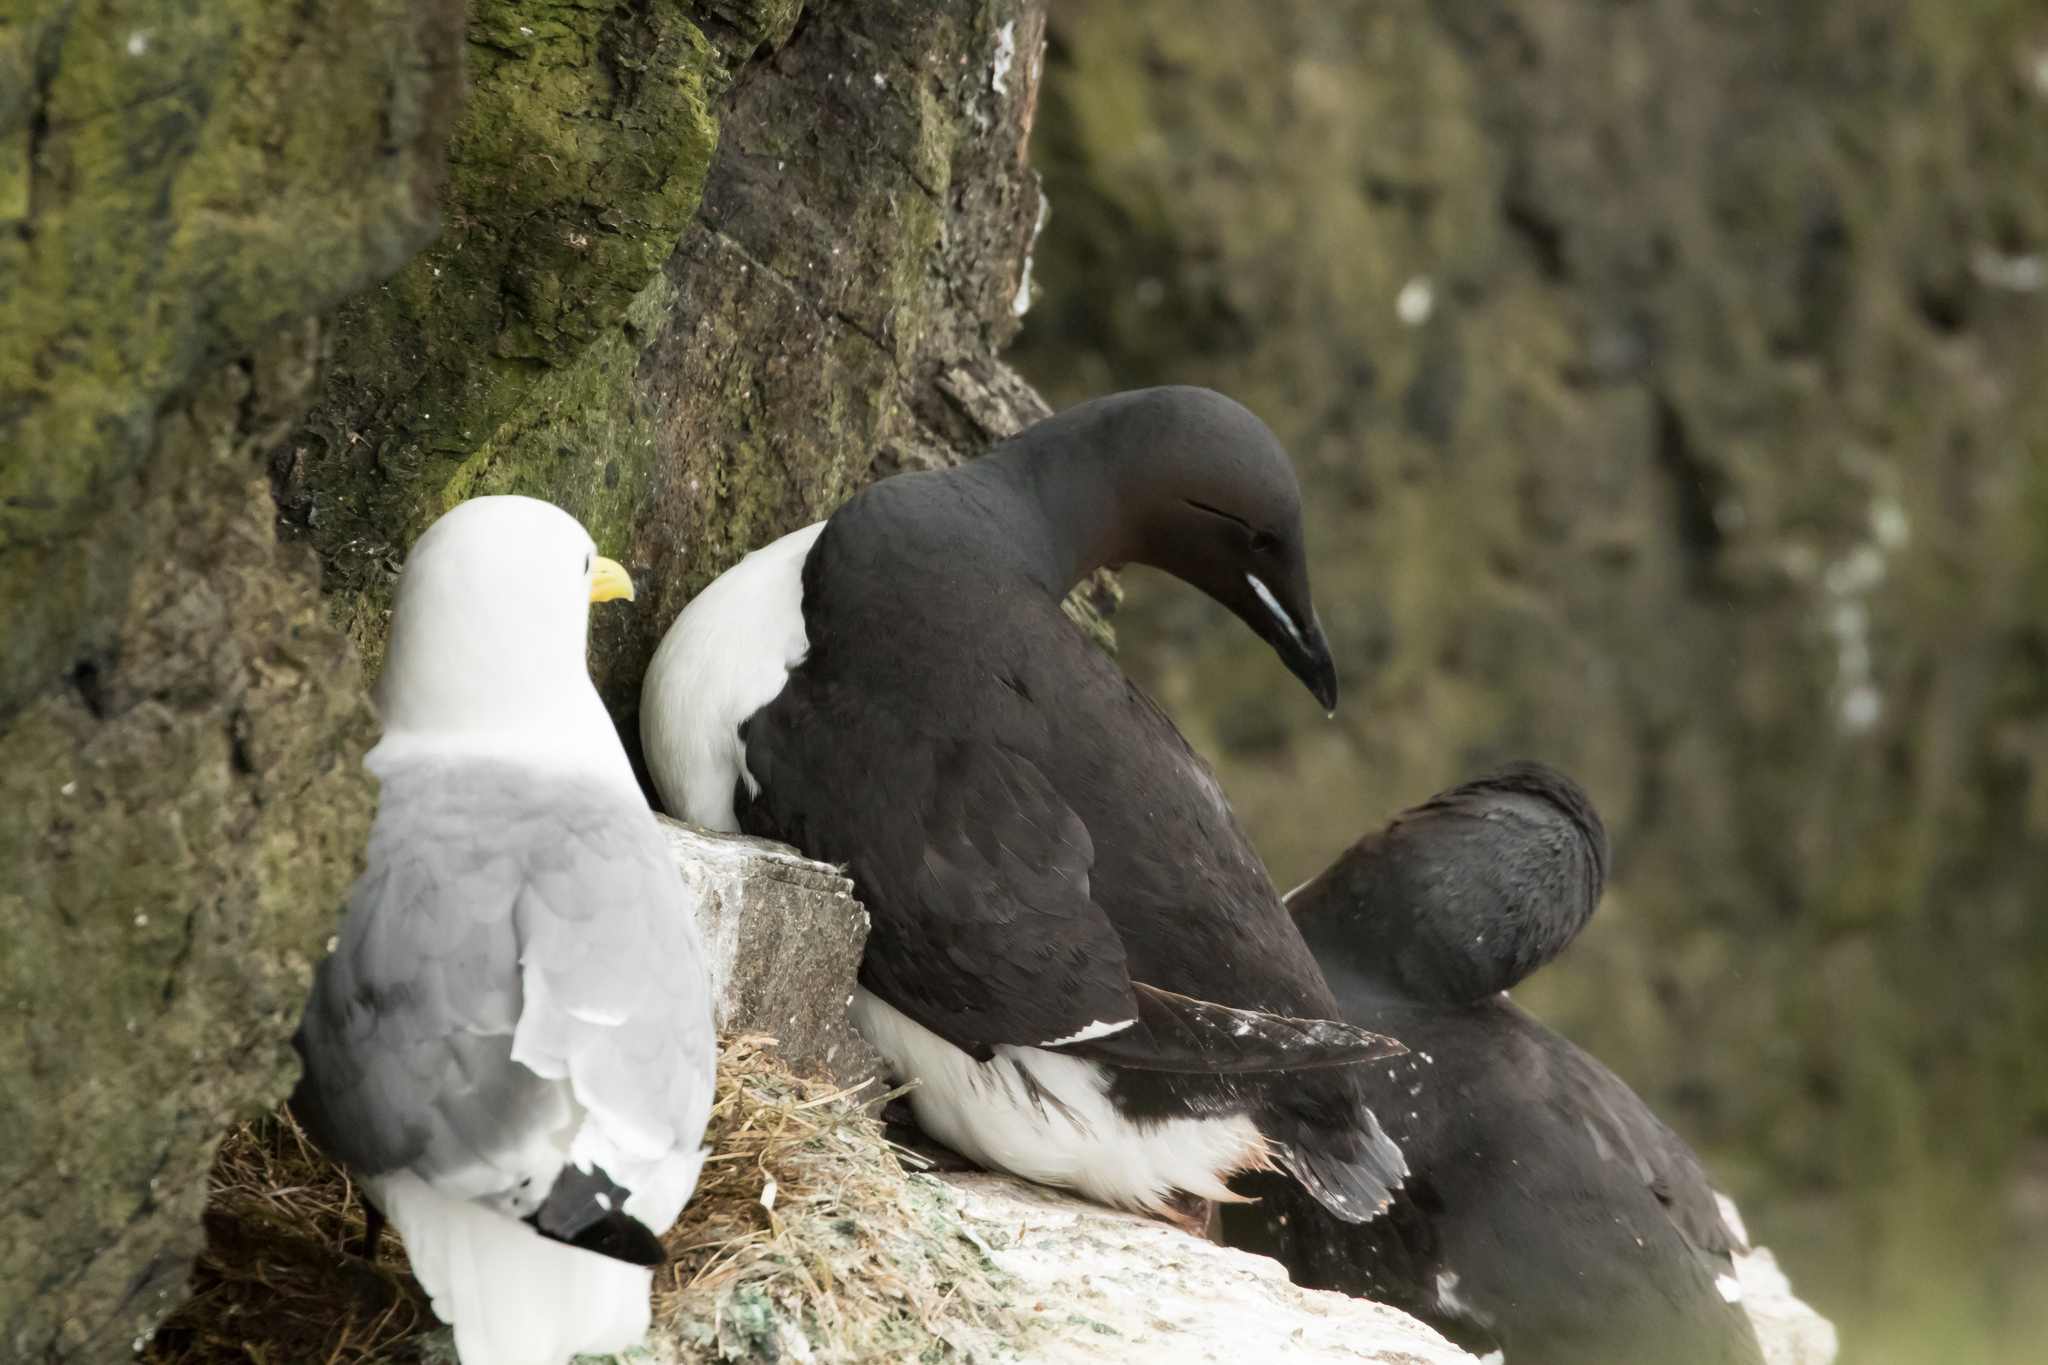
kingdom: Animalia
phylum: Chordata
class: Aves
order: Charadriiformes
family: Alcidae
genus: Uria
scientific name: Uria lomvia
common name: Thick-billed murre
